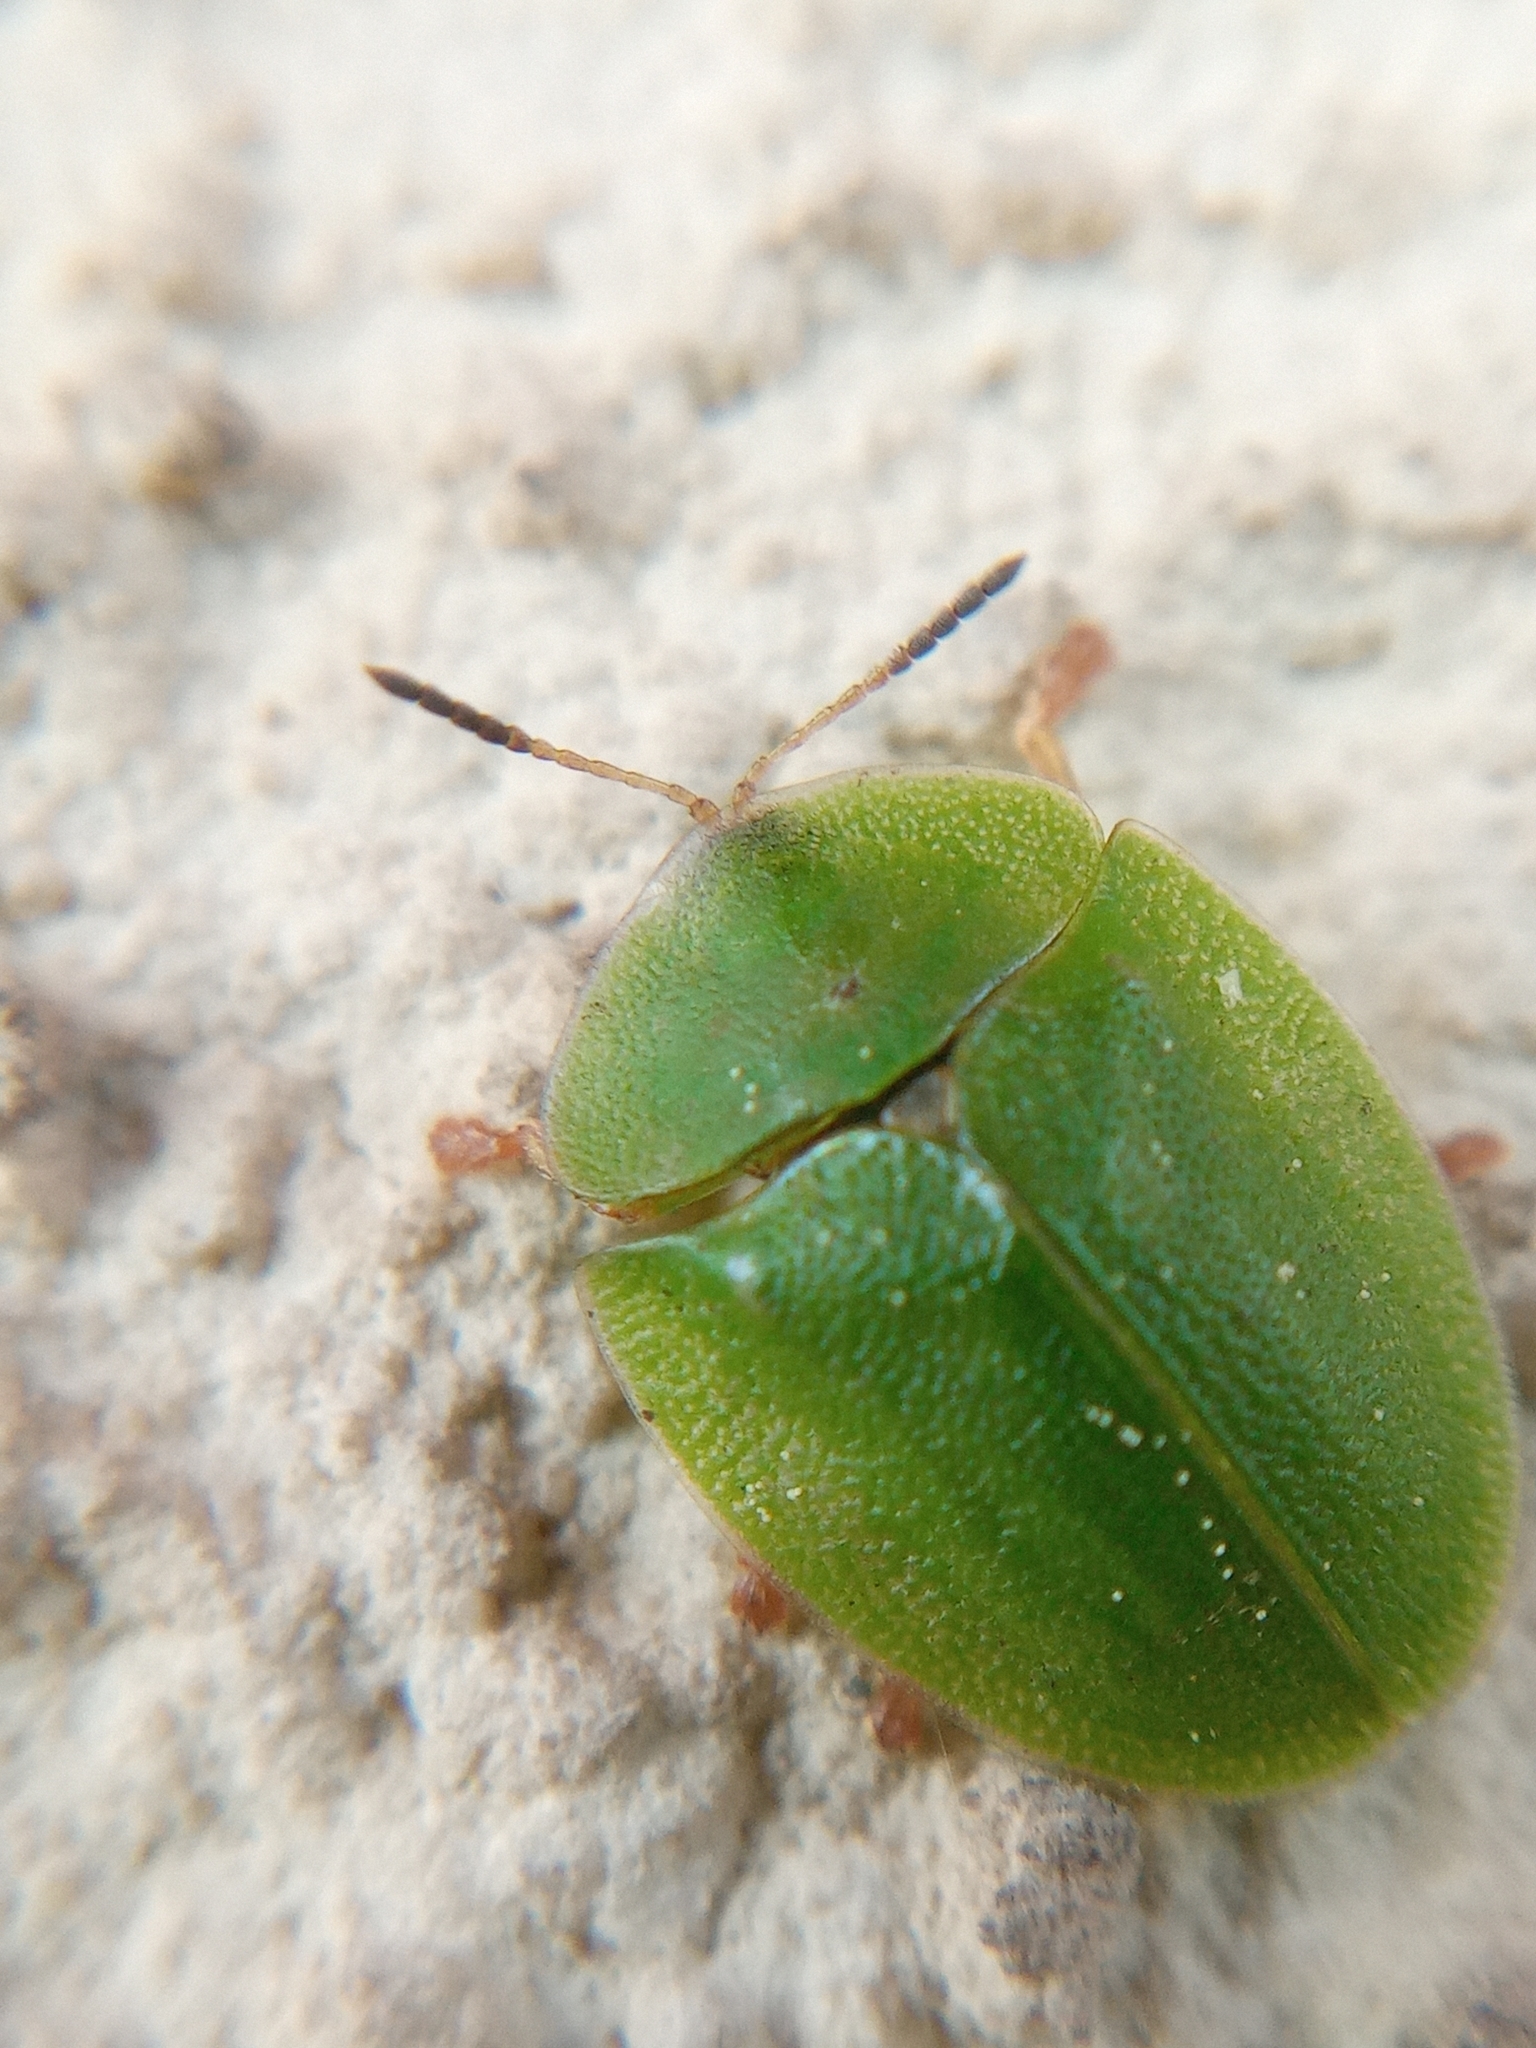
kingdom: Animalia
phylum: Arthropoda
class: Insecta
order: Coleoptera
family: Chrysomelidae
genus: Cassida
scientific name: Cassida viridis
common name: Green tortoise beetle
